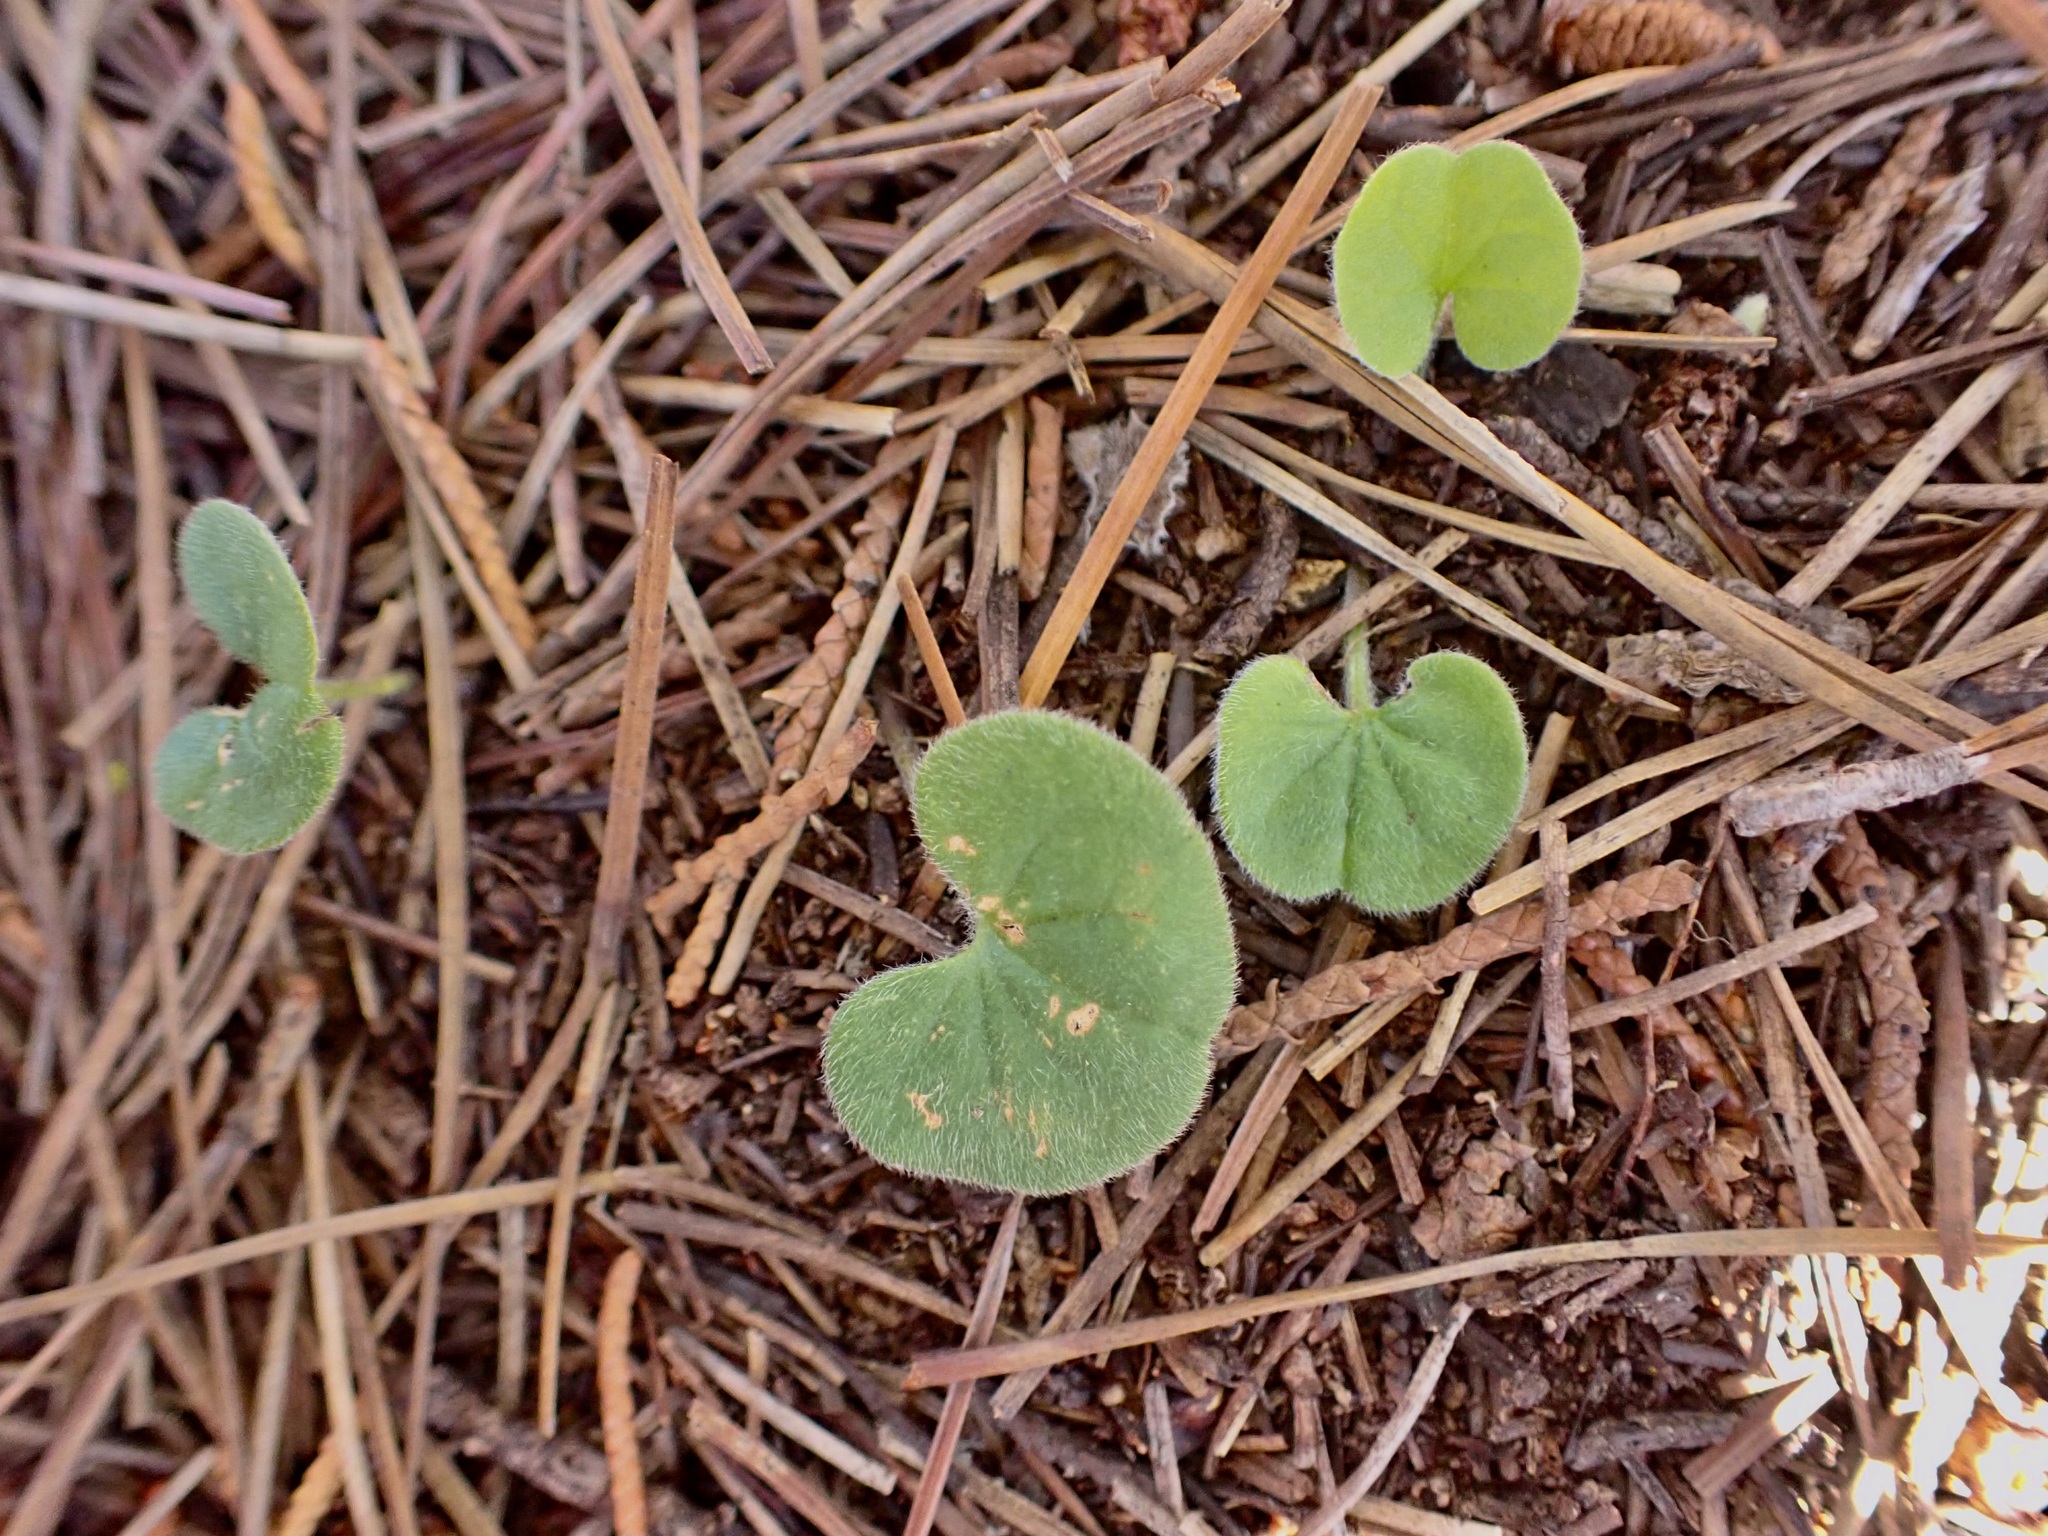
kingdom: Plantae
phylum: Tracheophyta
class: Magnoliopsida
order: Solanales
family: Convolvulaceae
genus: Dichondra
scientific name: Dichondra repens
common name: Kidneyweed
